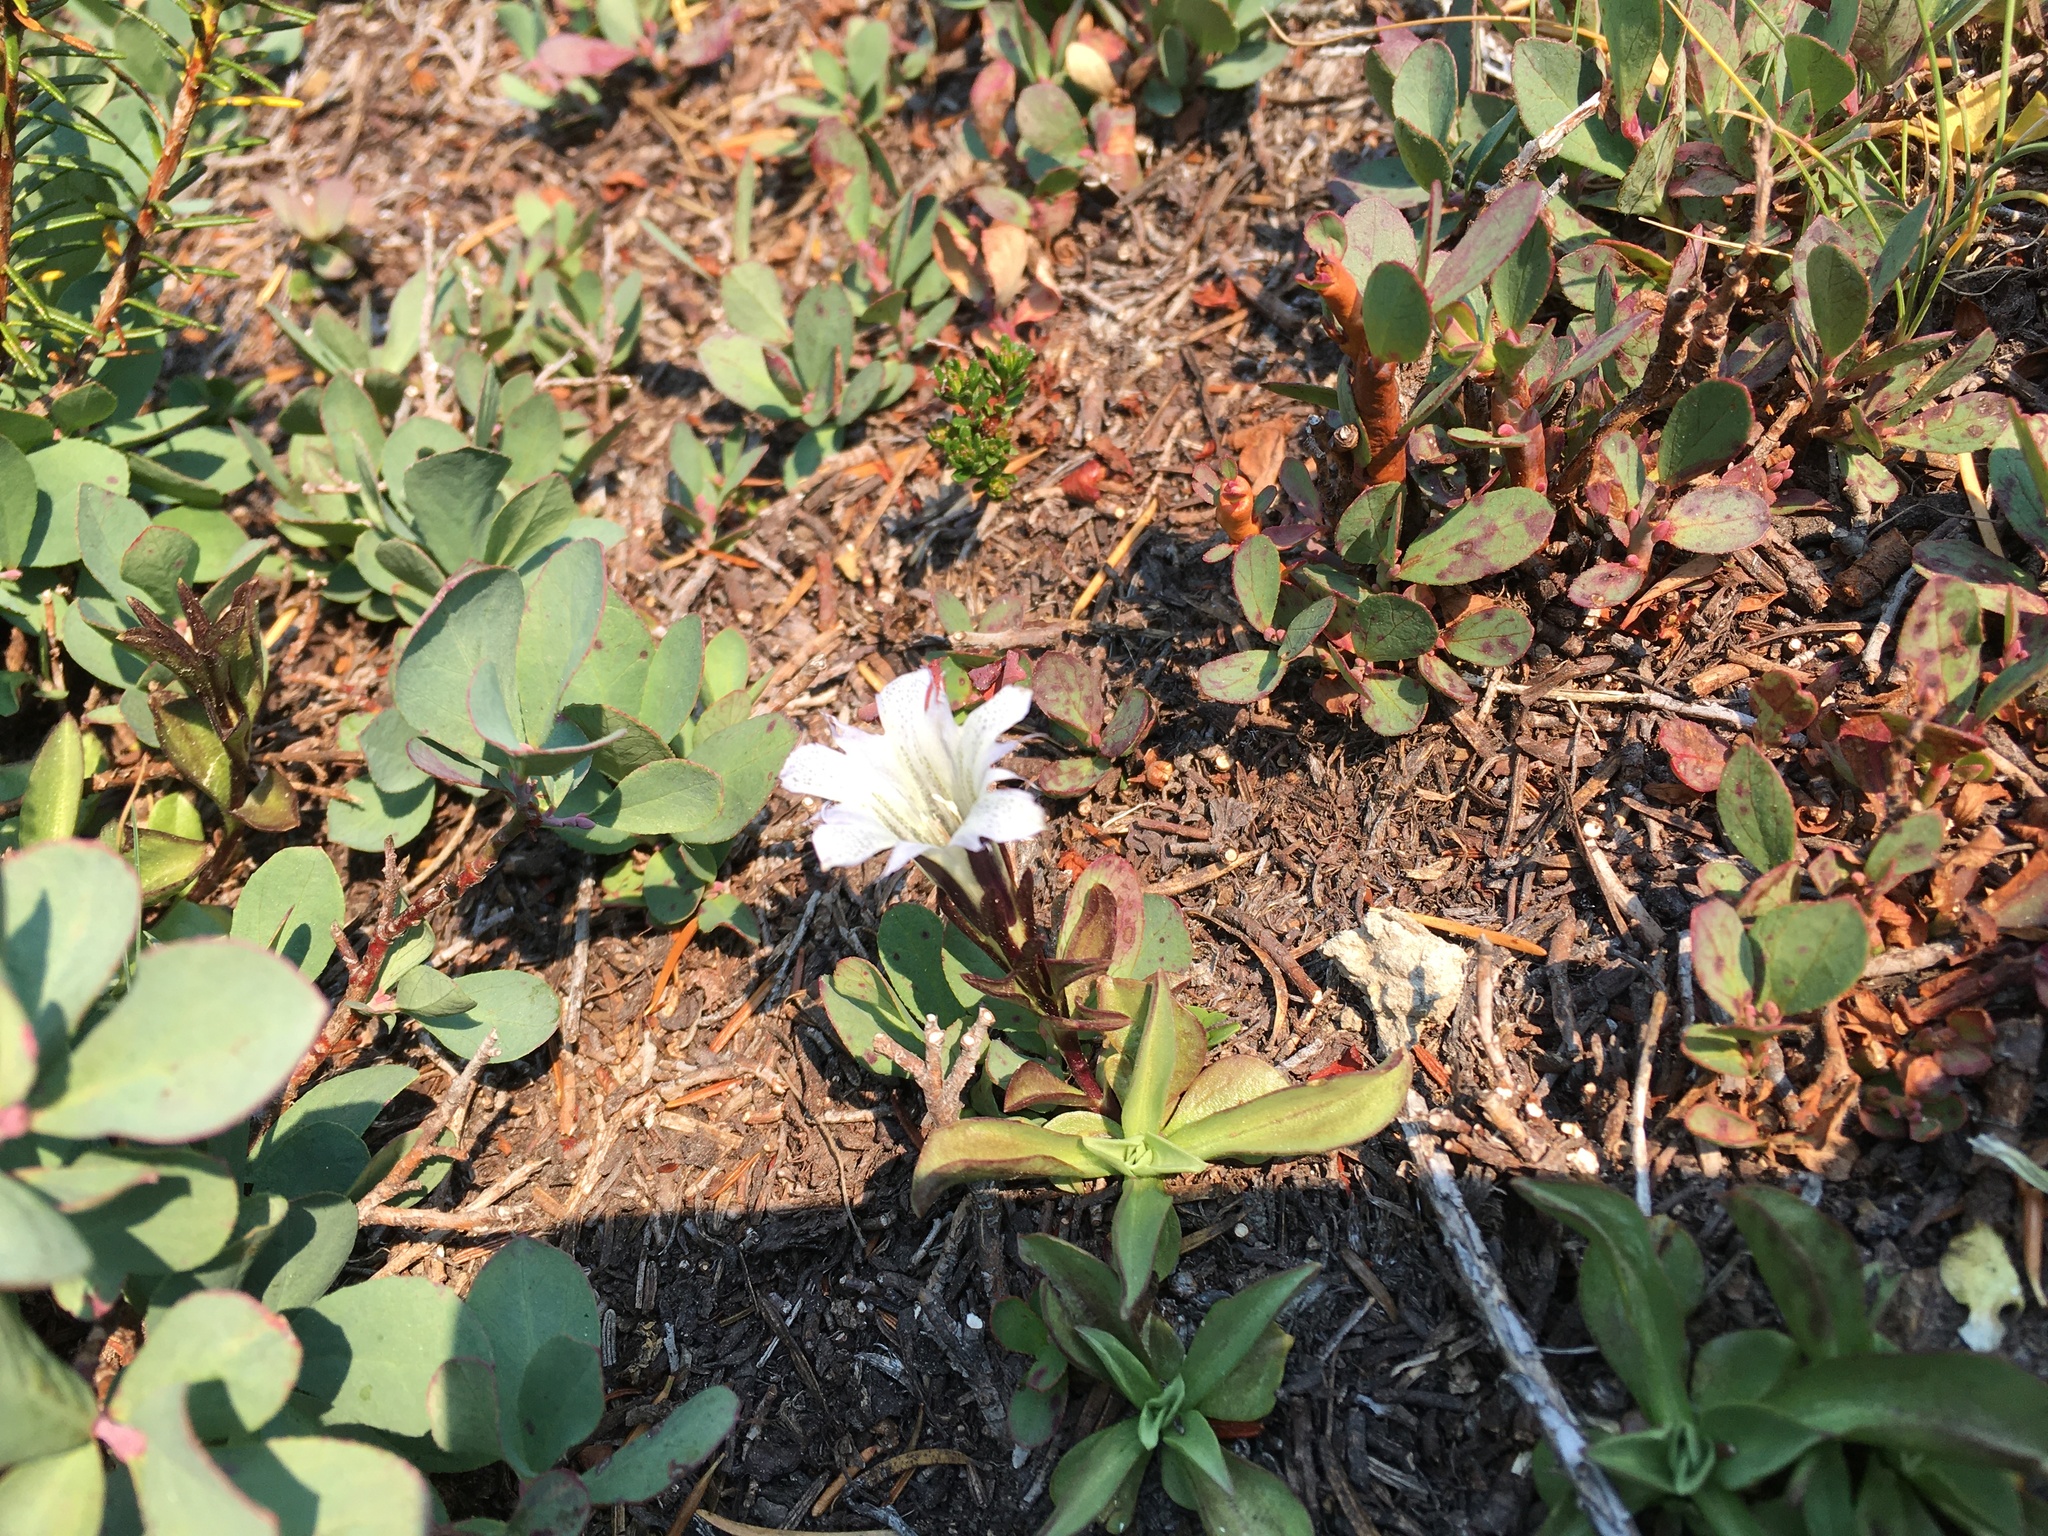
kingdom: Plantae
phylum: Tracheophyta
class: Magnoliopsida
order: Gentianales
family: Gentianaceae
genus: Gentiana
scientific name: Gentiana newberryi
